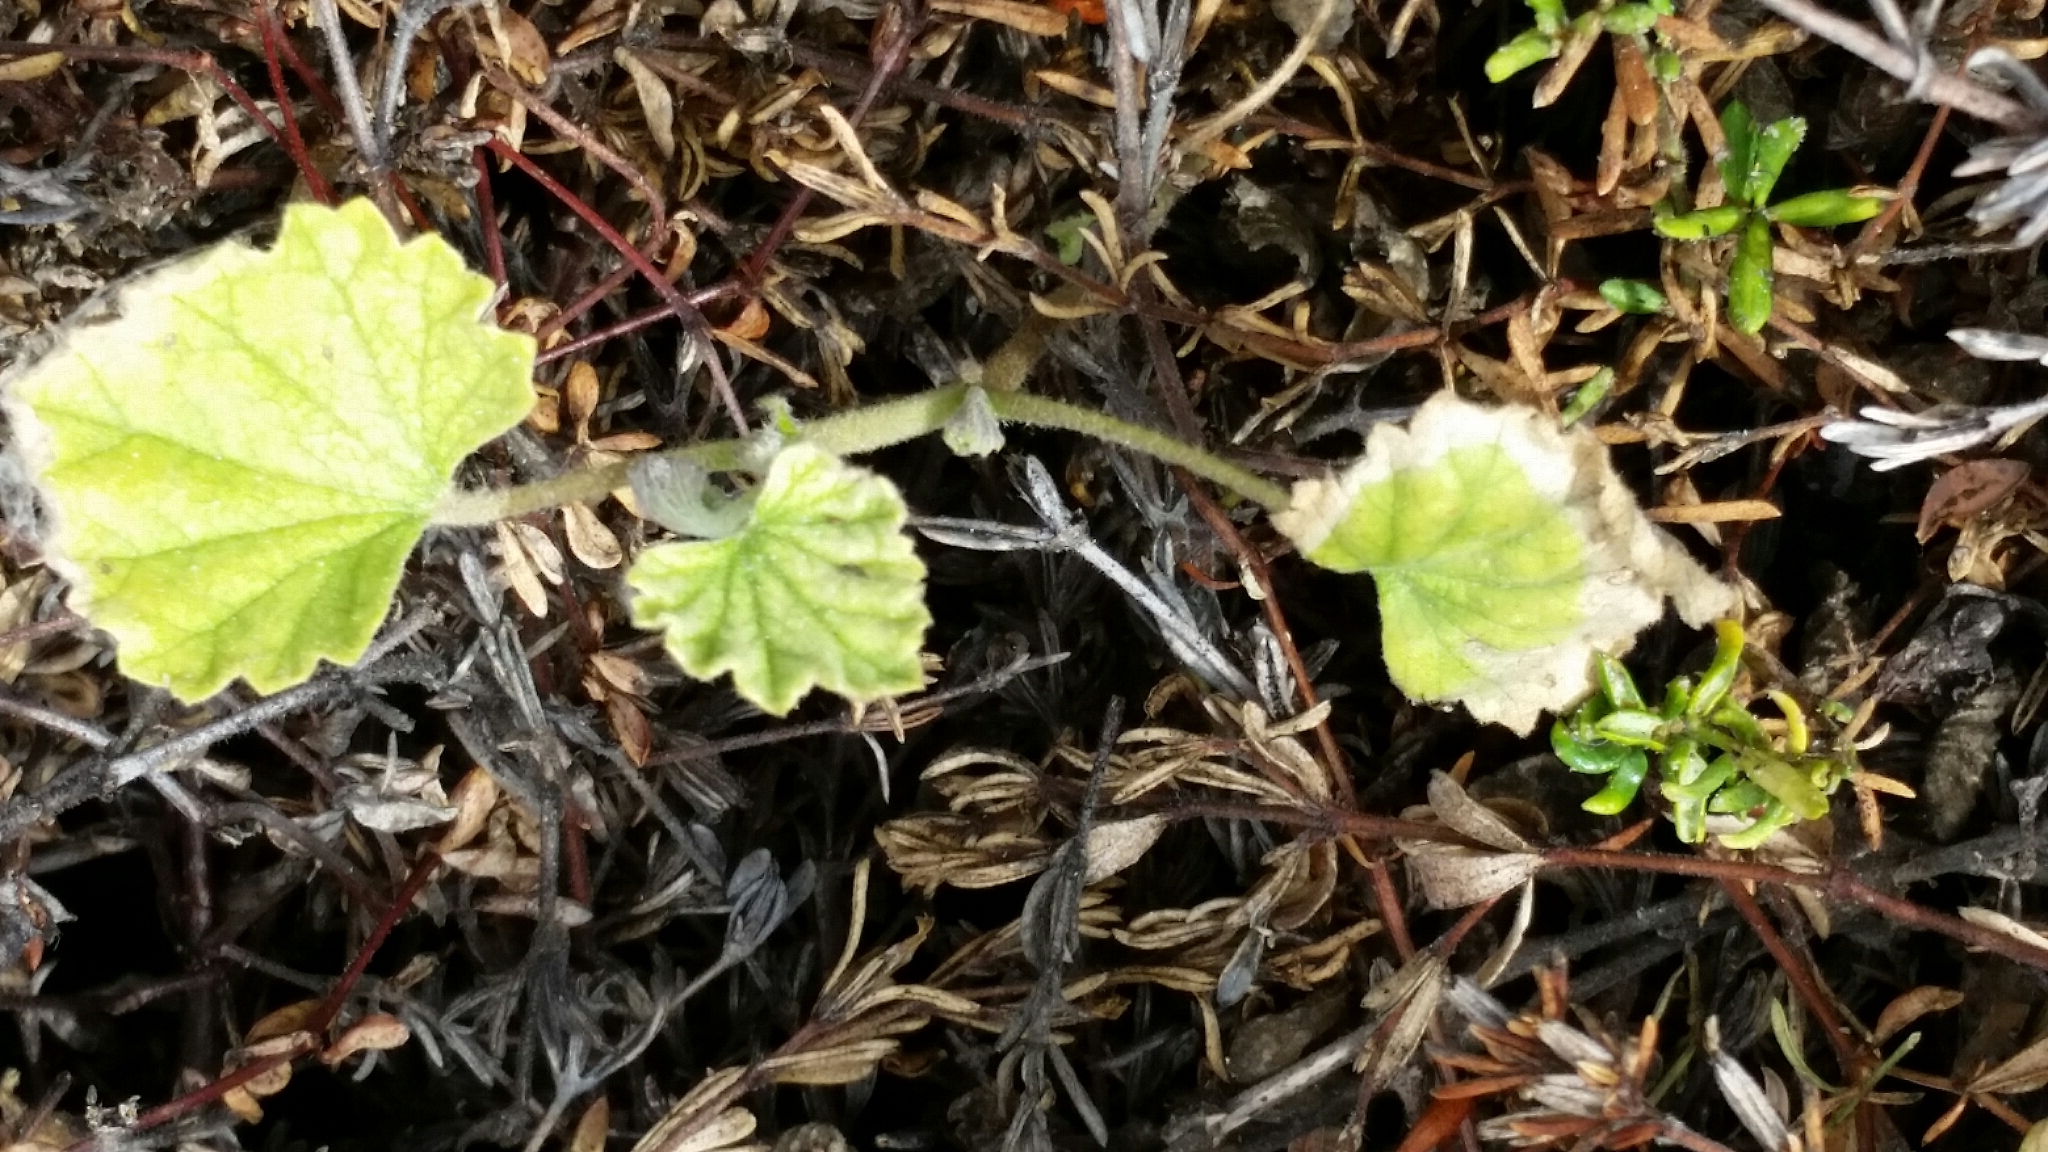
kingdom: Plantae
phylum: Tracheophyta
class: Magnoliopsida
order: Malvales
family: Malvaceae
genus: Malvella
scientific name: Malvella leprosa
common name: Alkali-mallow
